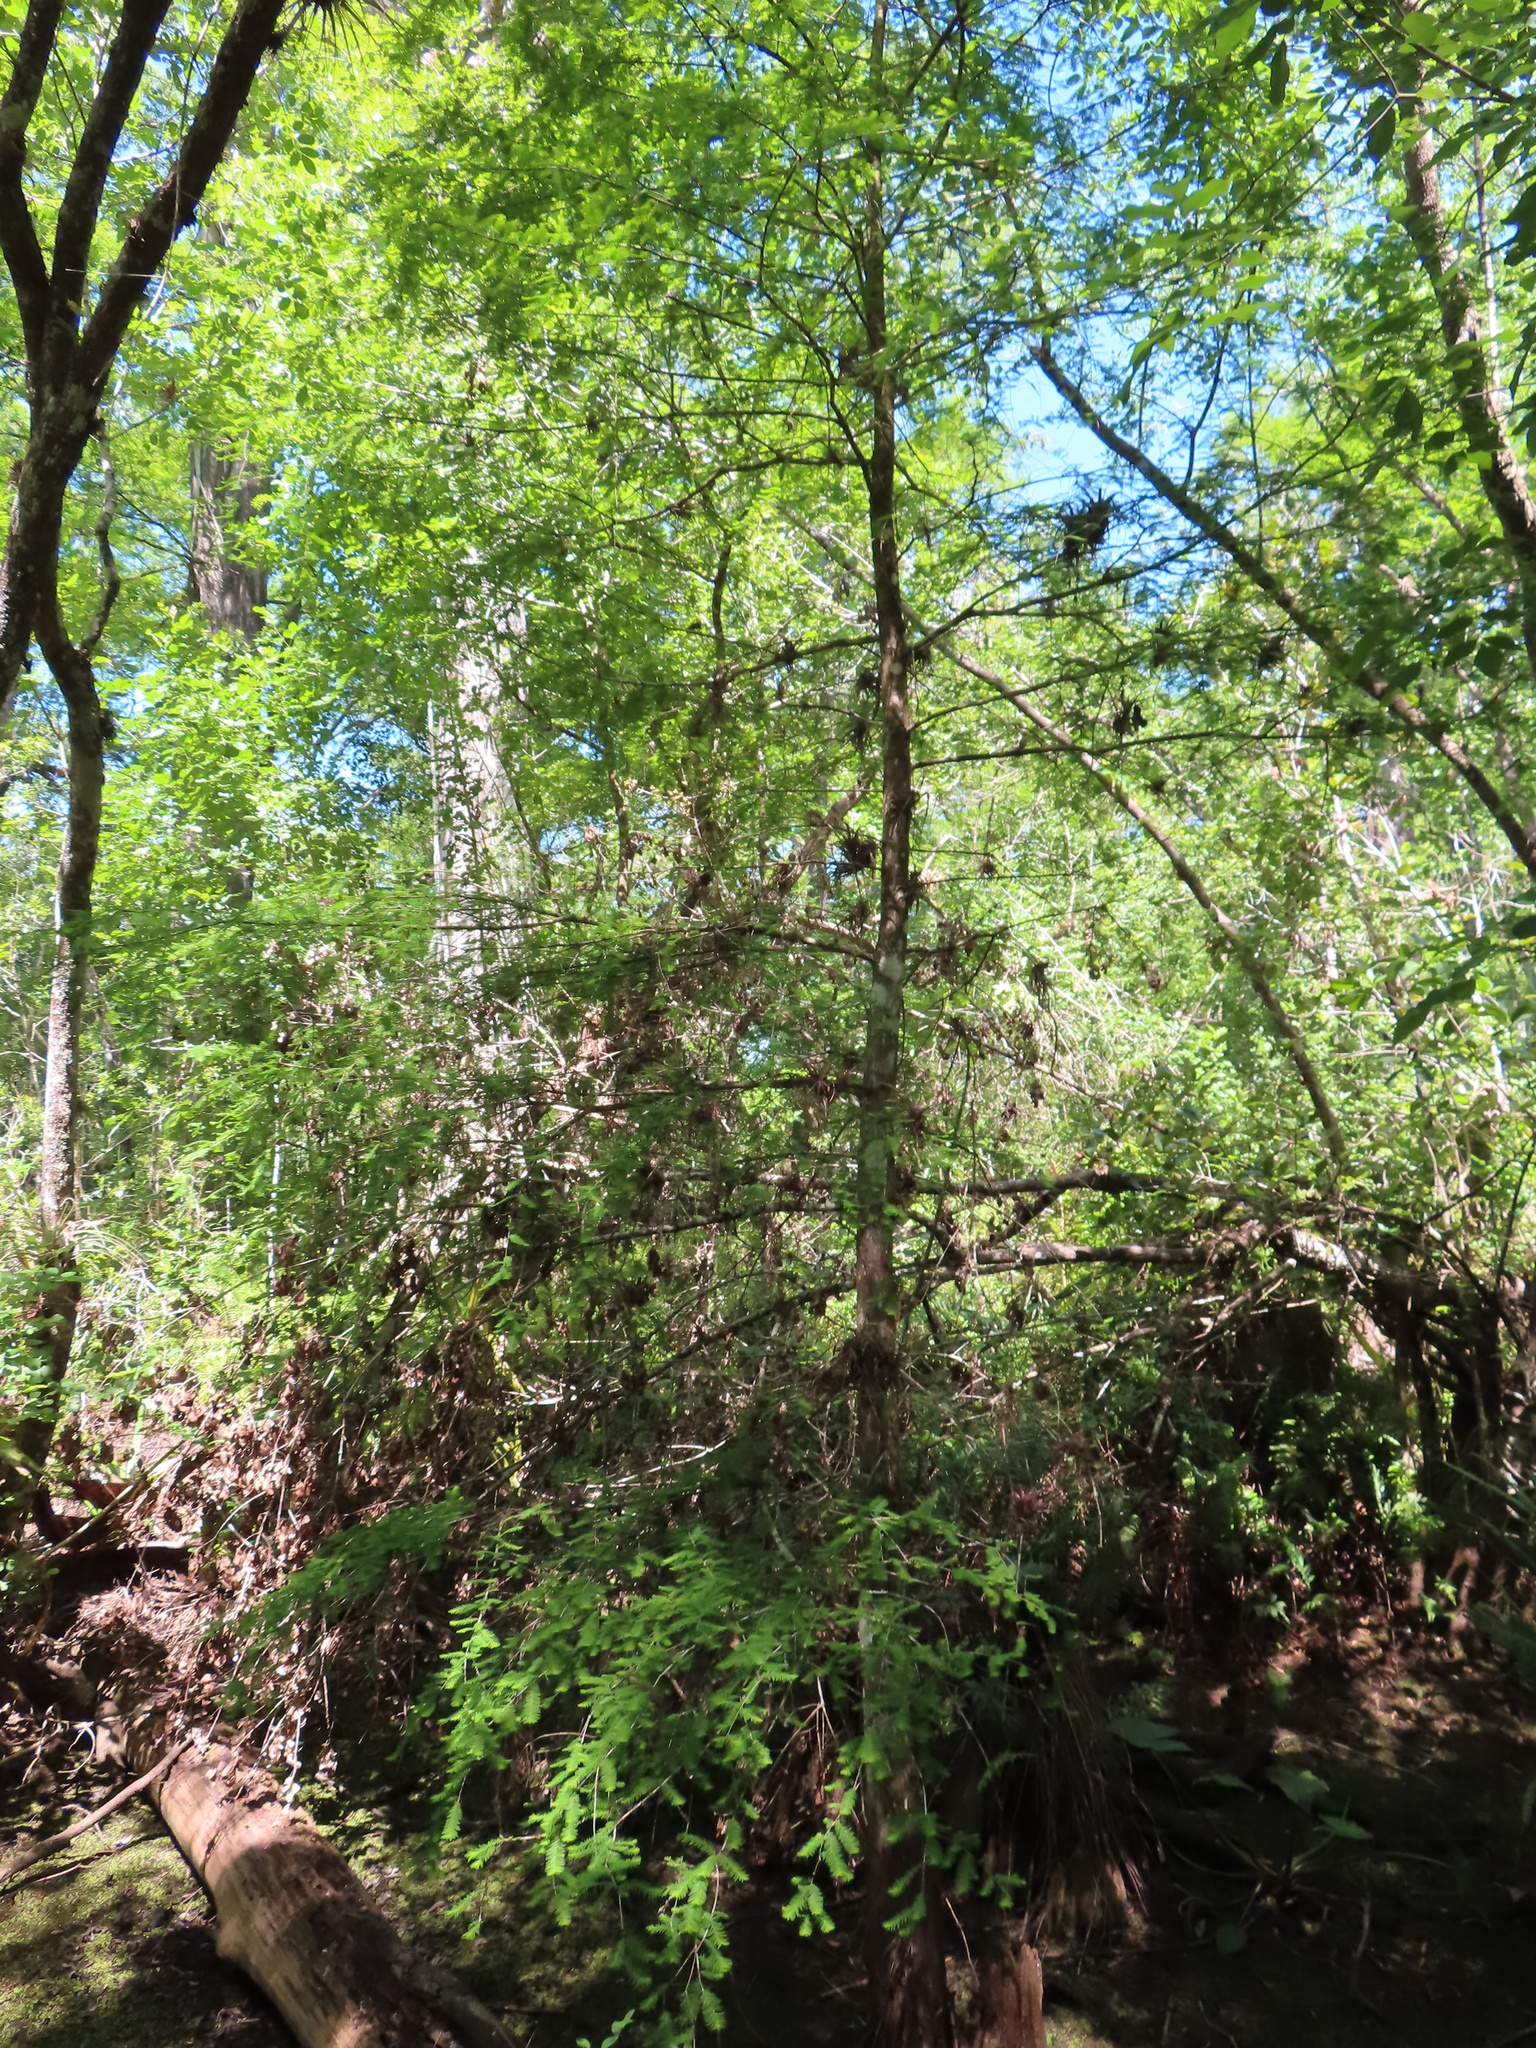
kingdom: Plantae
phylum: Tracheophyta
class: Pinopsida
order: Pinales
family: Cupressaceae
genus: Taxodium
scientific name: Taxodium distichum
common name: Bald cypress
